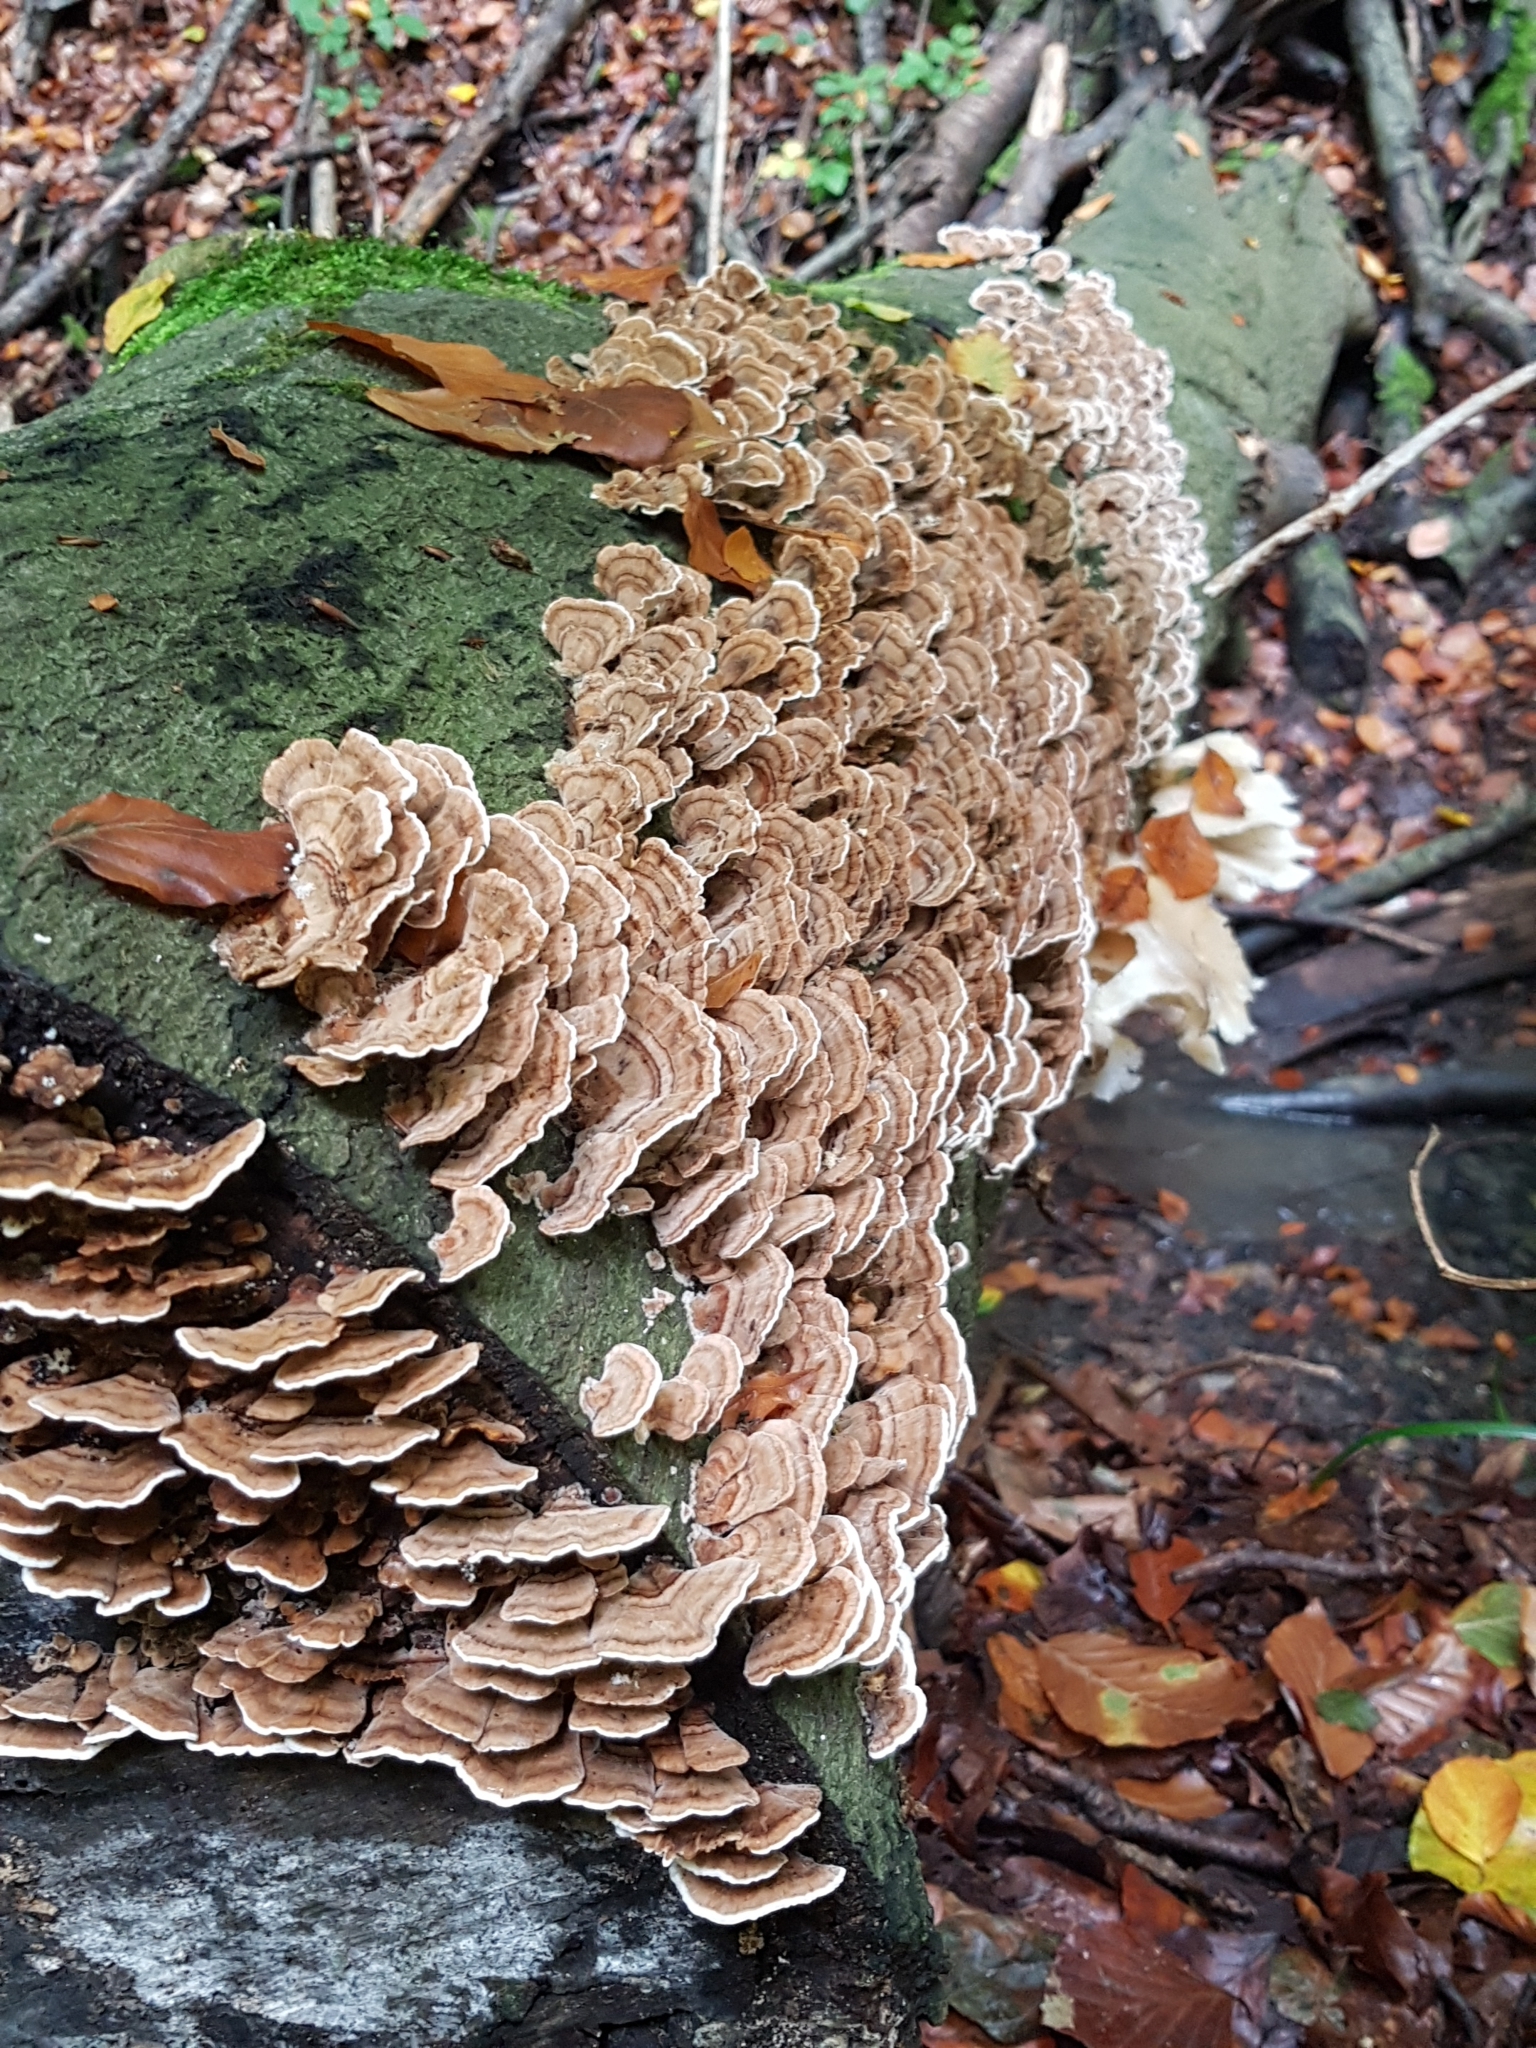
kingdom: Fungi
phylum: Basidiomycota
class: Agaricomycetes
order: Polyporales
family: Polyporaceae
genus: Trametes
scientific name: Trametes versicolor
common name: Turkeytail
